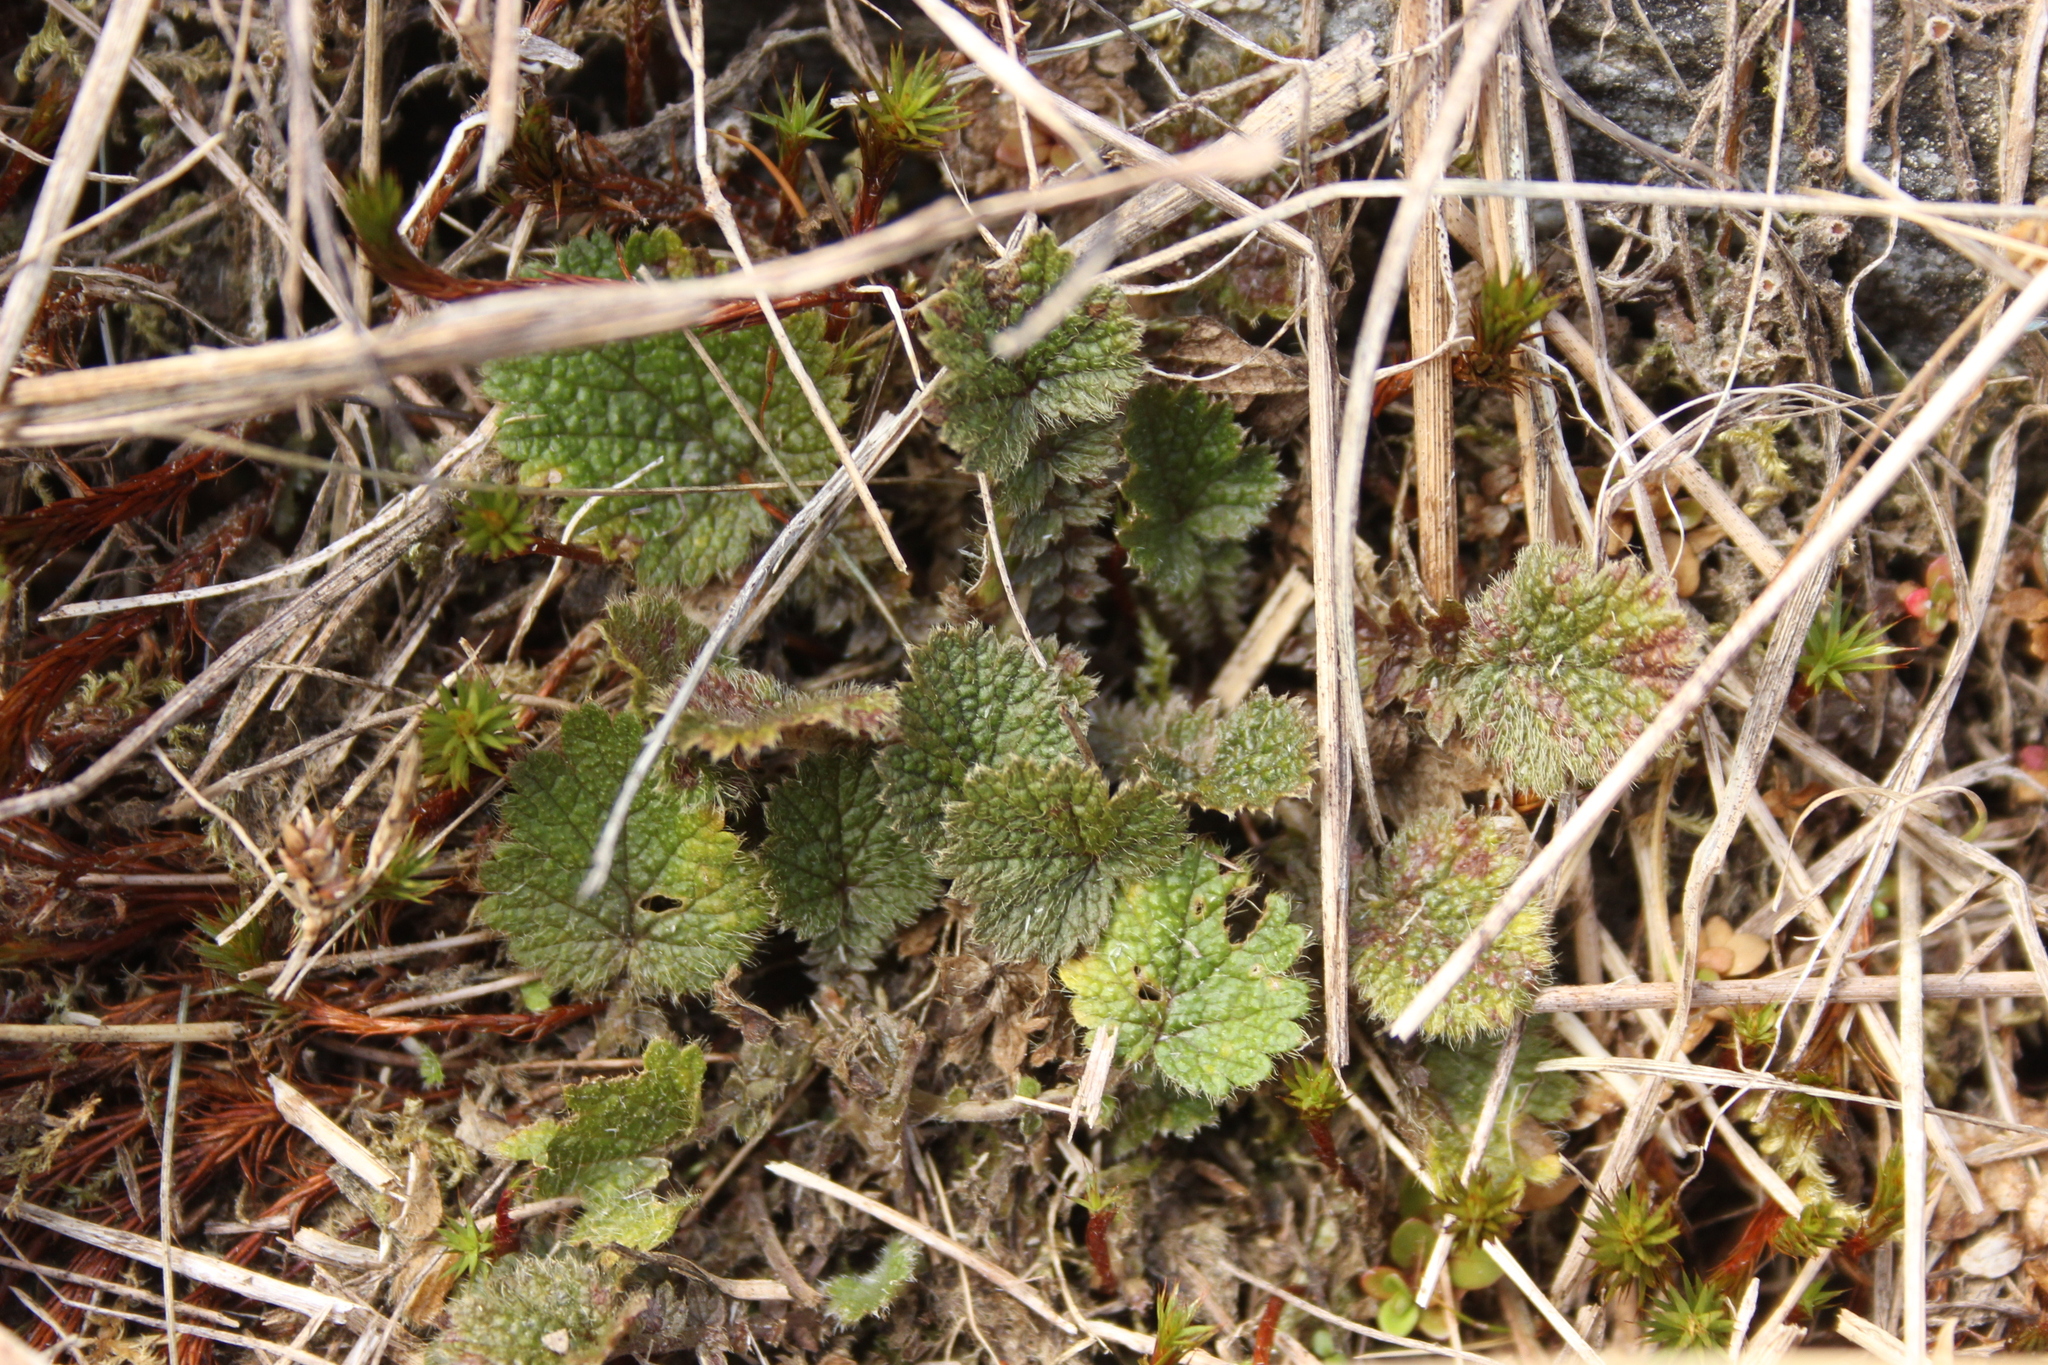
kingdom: Plantae
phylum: Tracheophyta
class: Magnoliopsida
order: Rosales
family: Rosaceae
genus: Geum
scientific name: Geum leiospermum
